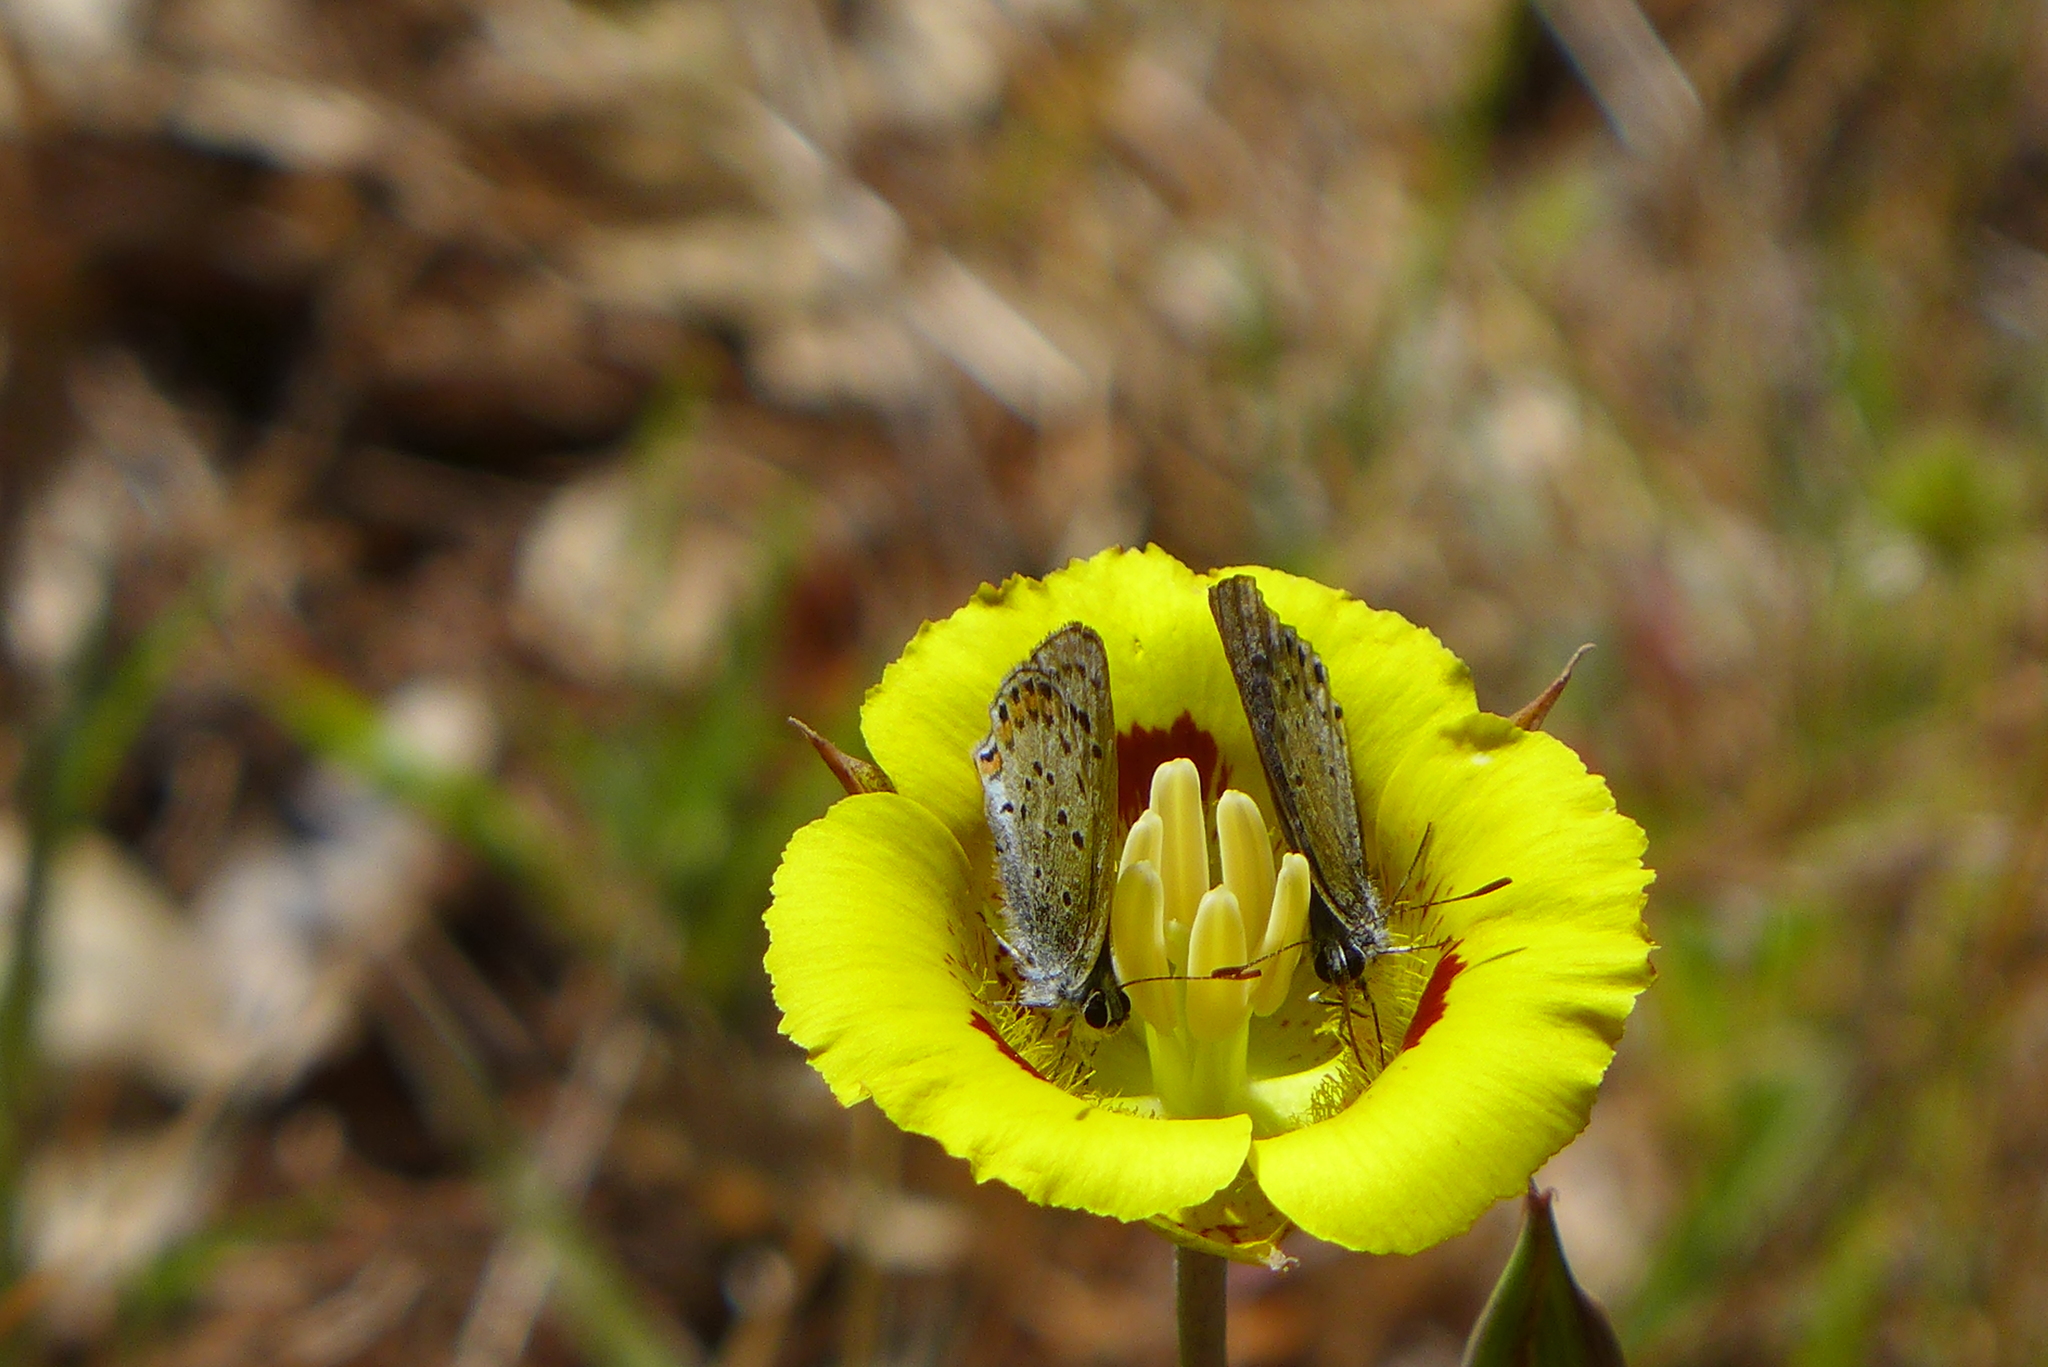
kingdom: Plantae
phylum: Tracheophyta
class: Liliopsida
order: Liliales
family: Liliaceae
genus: Calochortus
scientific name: Calochortus luteus
